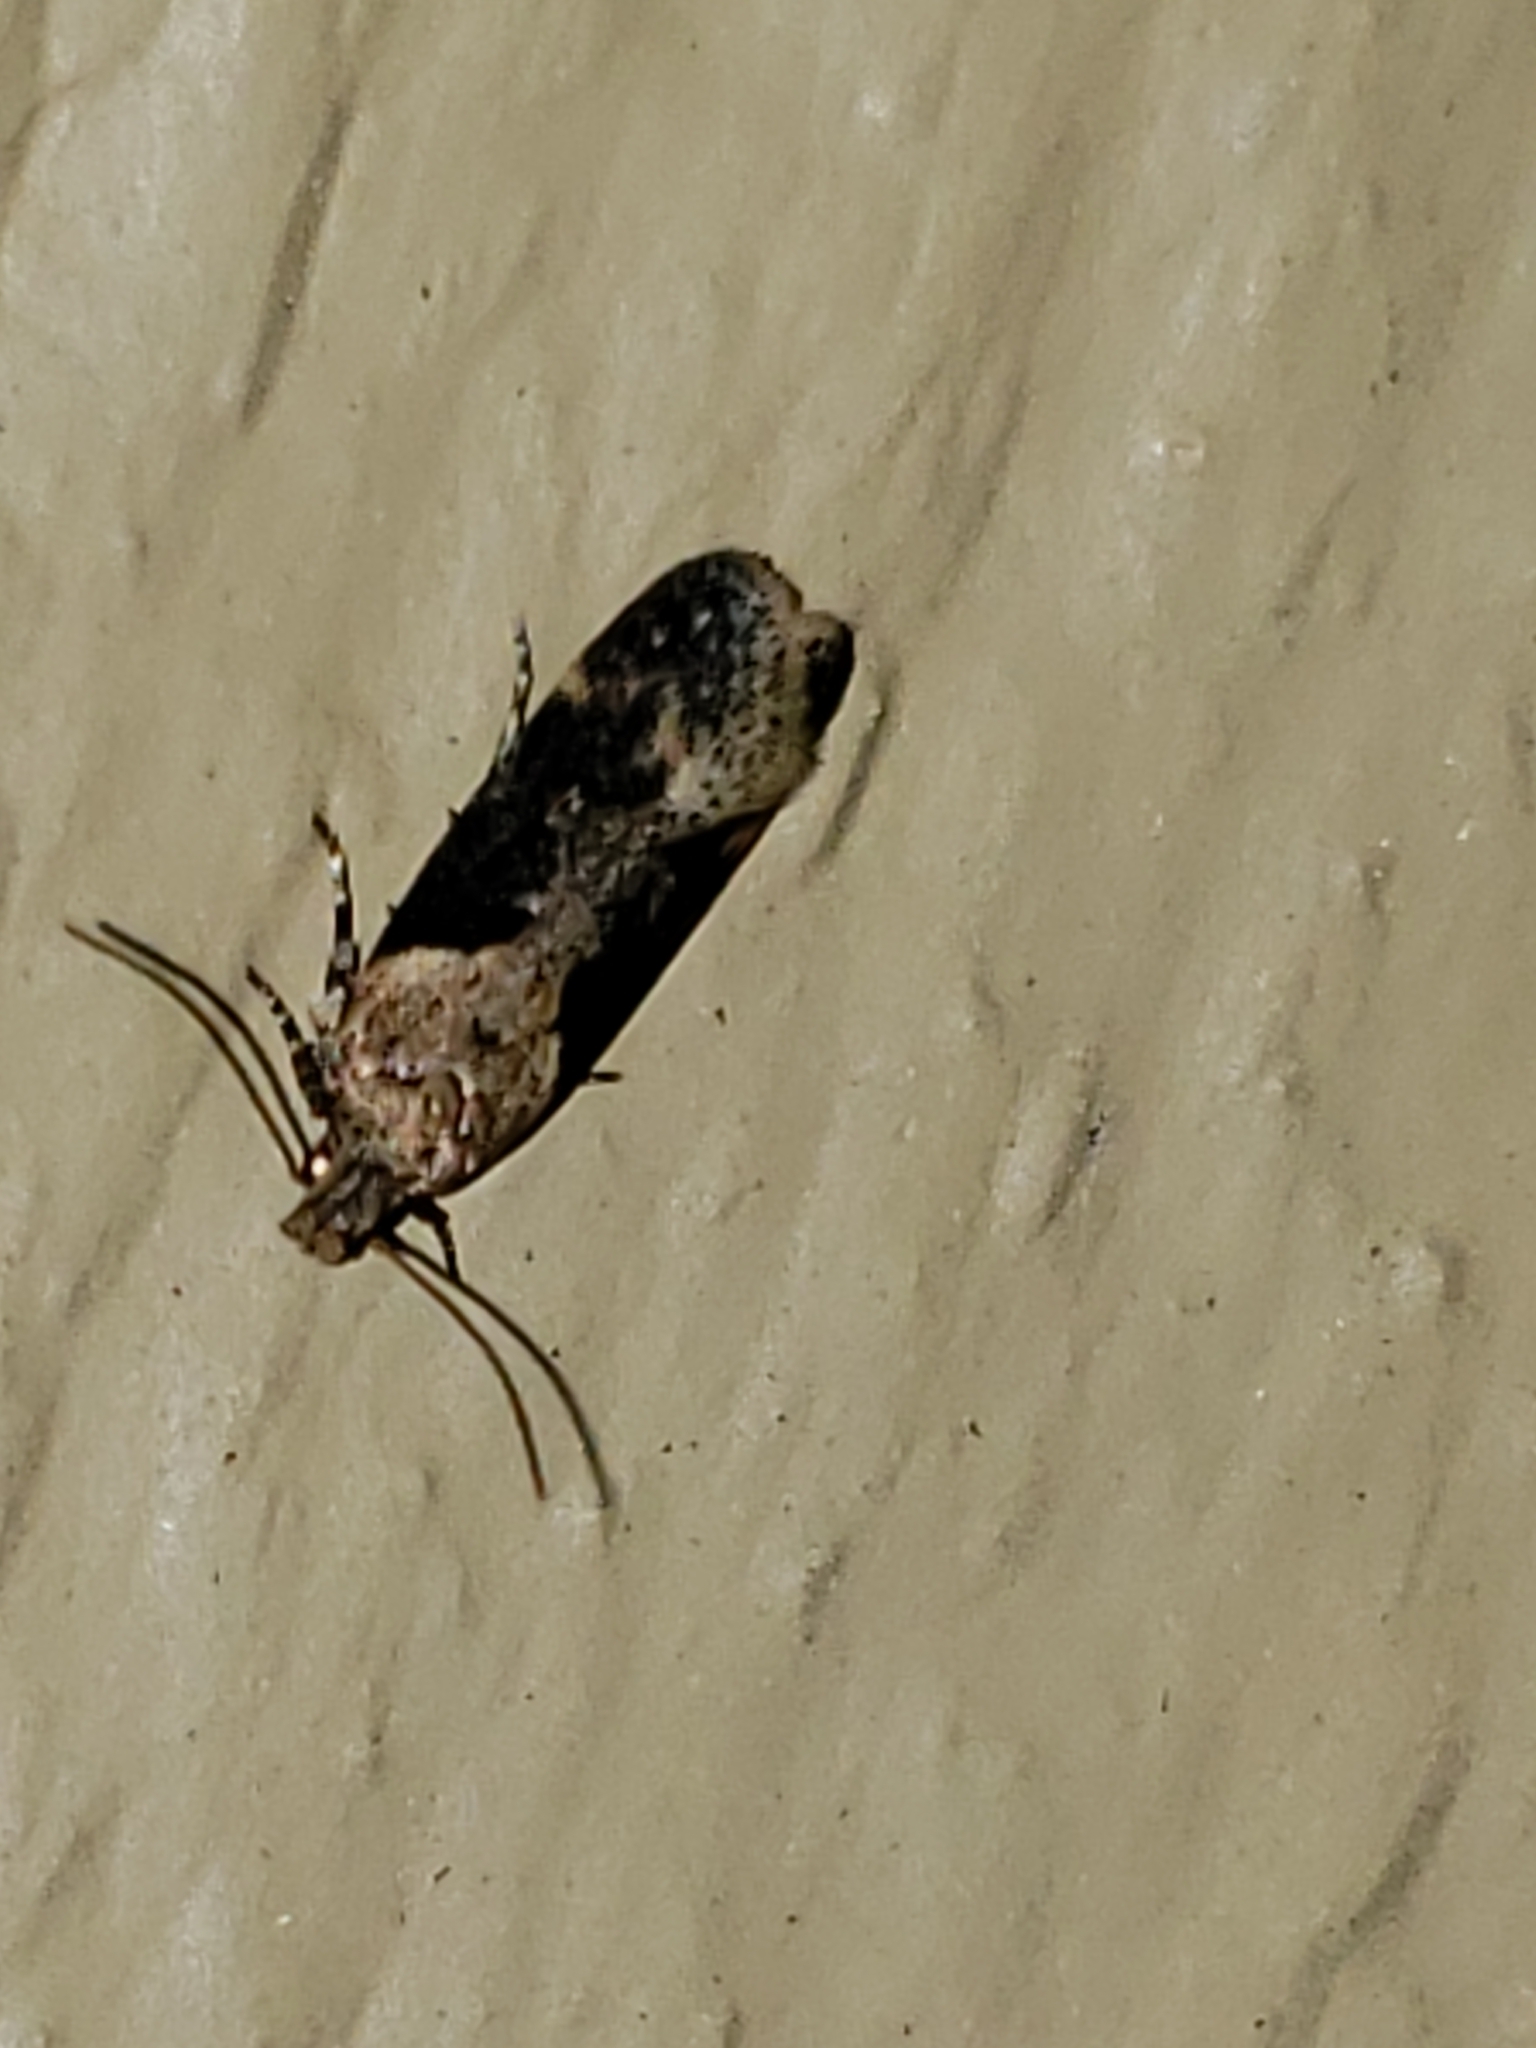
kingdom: Animalia
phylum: Arthropoda
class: Insecta
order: Lepidoptera
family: Gelechiidae
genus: Chionodes
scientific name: Chionodes mediofuscella
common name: Black-smudged chionodes moth
